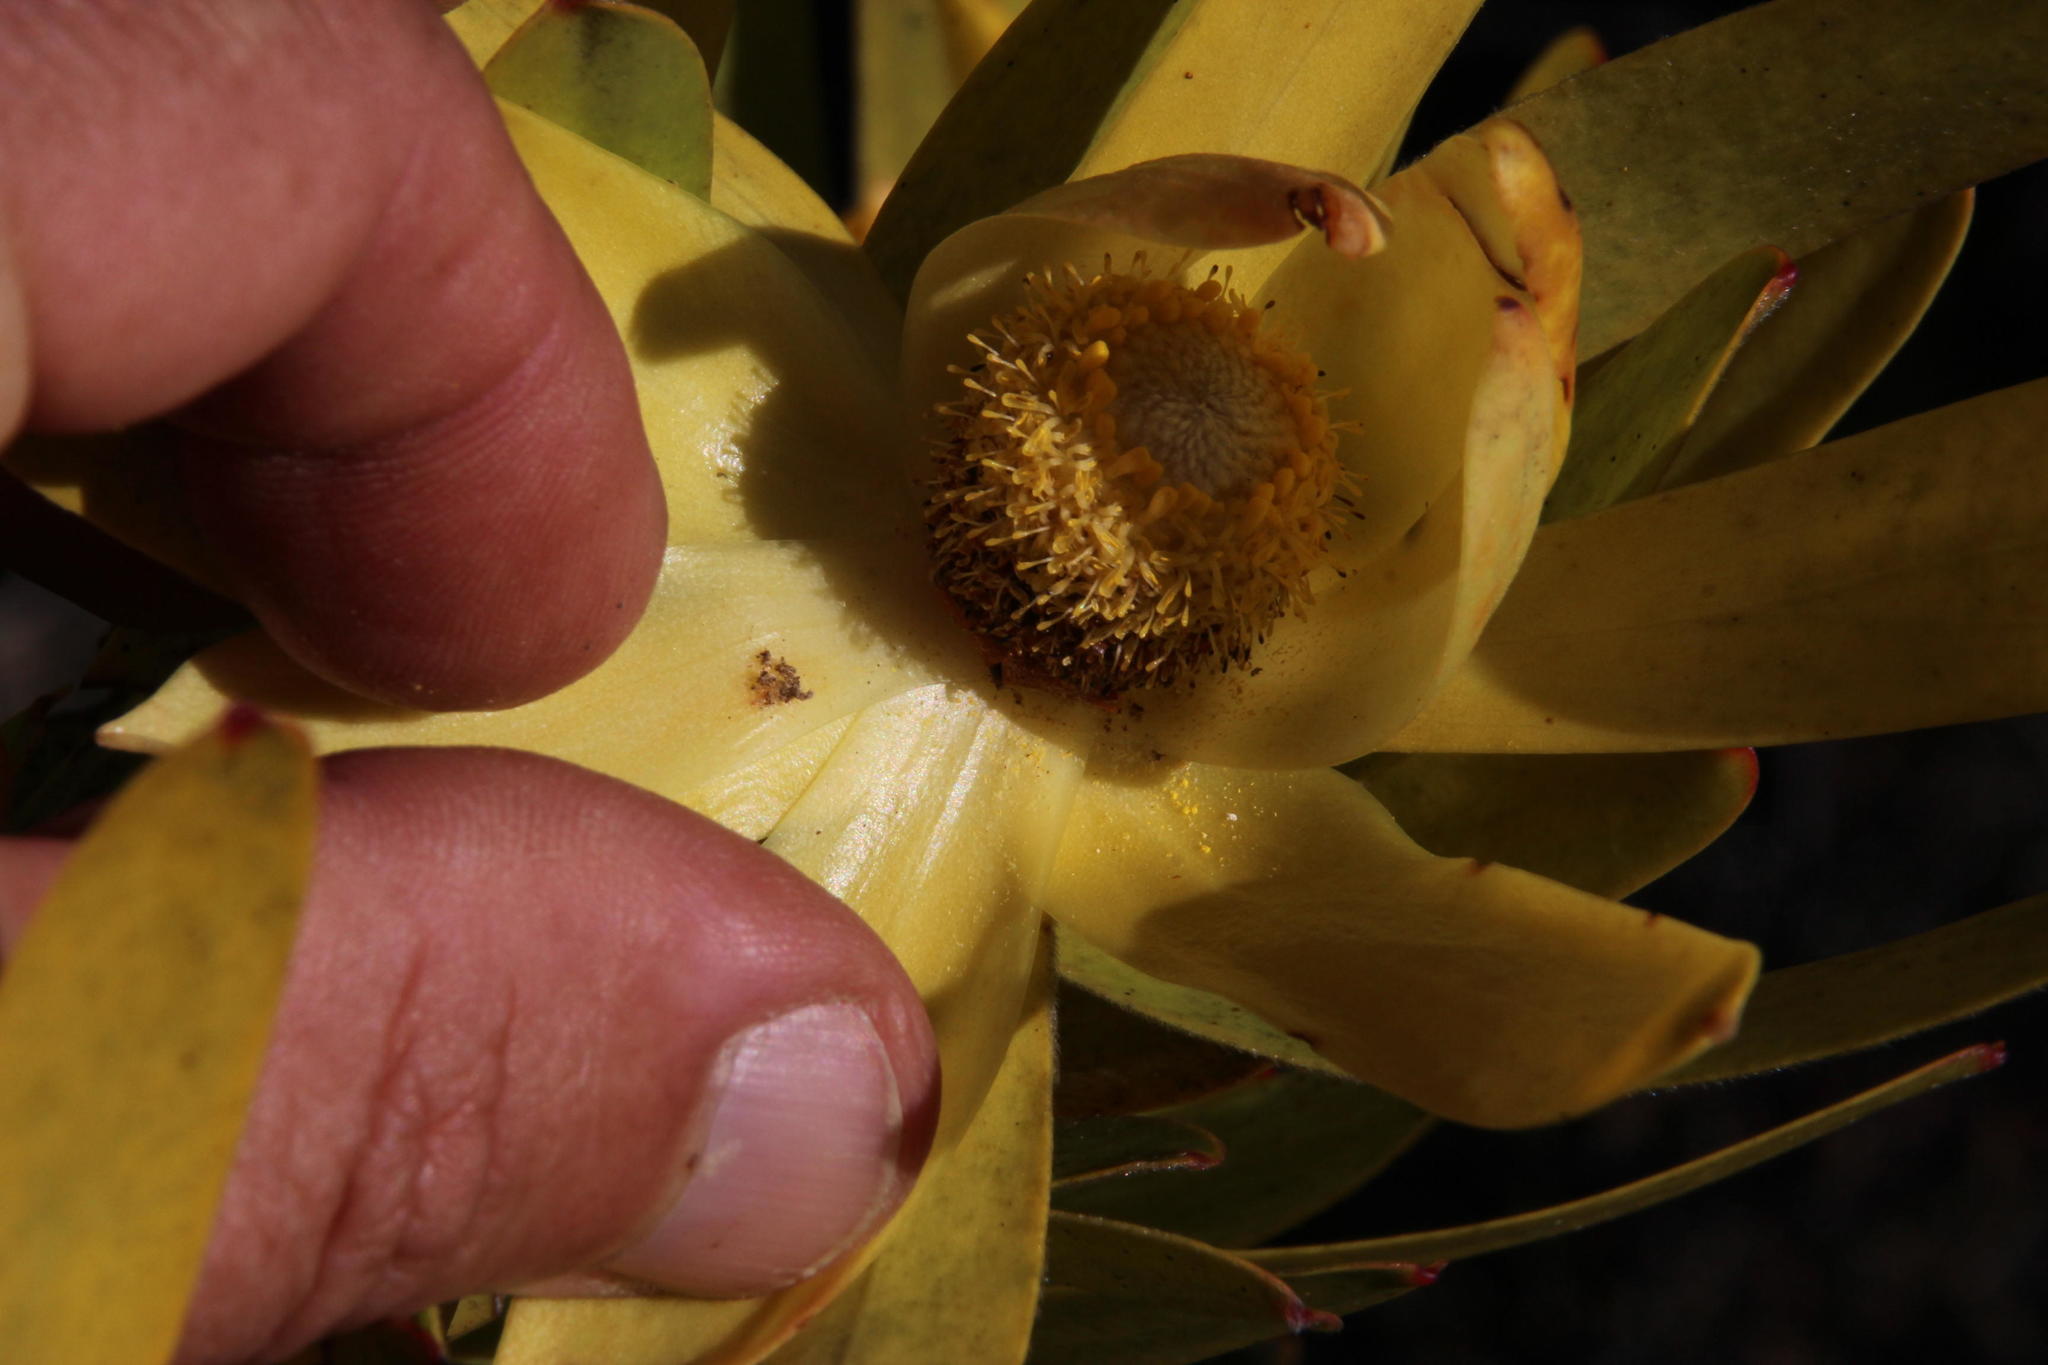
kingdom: Plantae
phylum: Tracheophyta
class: Magnoliopsida
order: Proteales
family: Proteaceae
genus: Leucadendron
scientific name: Leucadendron laureolum
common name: Golden sunshinebush
